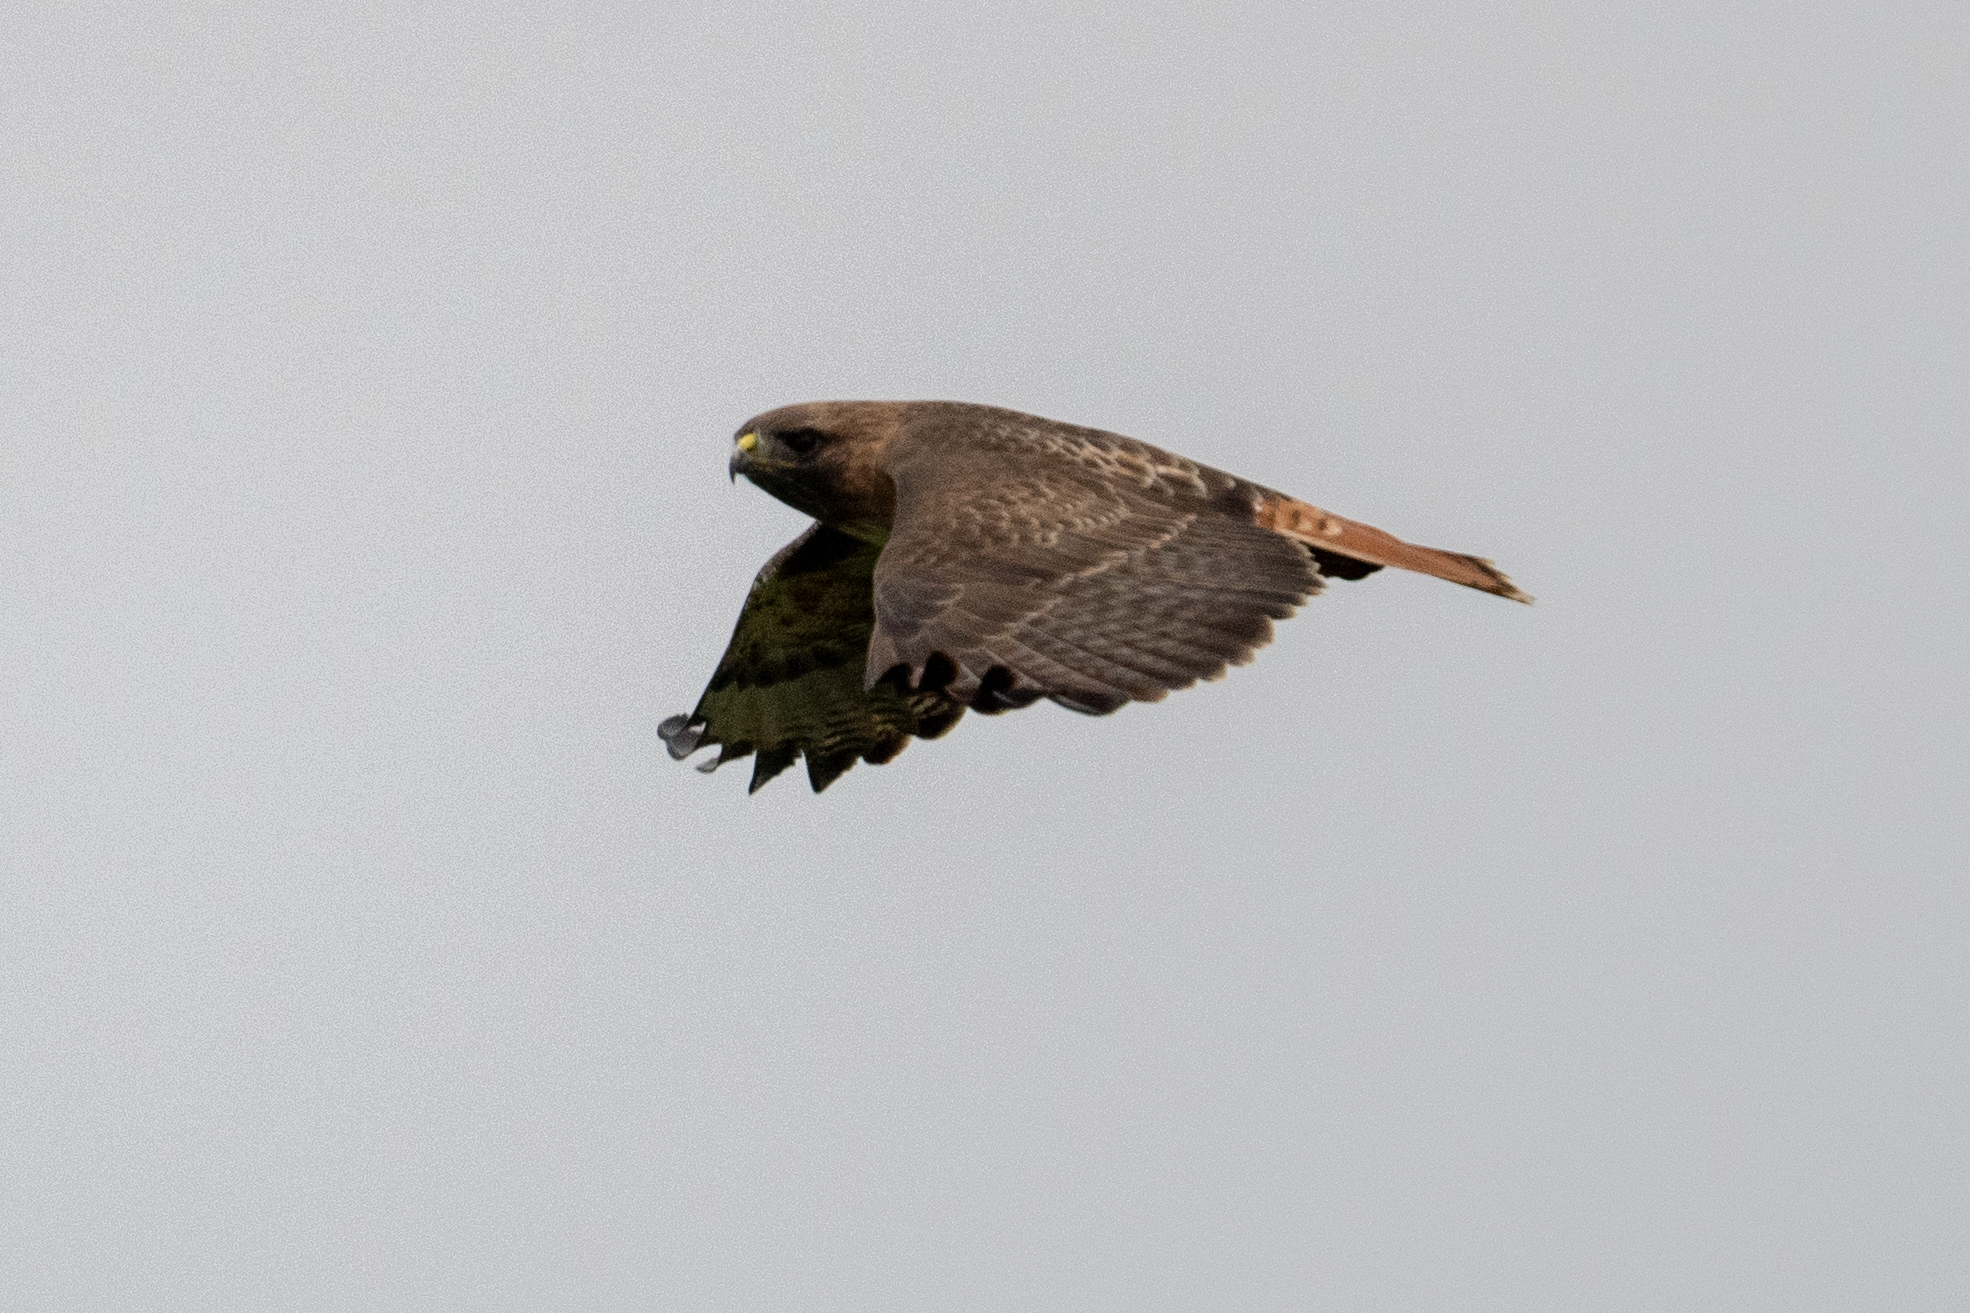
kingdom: Animalia
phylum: Chordata
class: Aves
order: Accipitriformes
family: Accipitridae
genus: Buteo
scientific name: Buteo jamaicensis
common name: Red-tailed hawk
